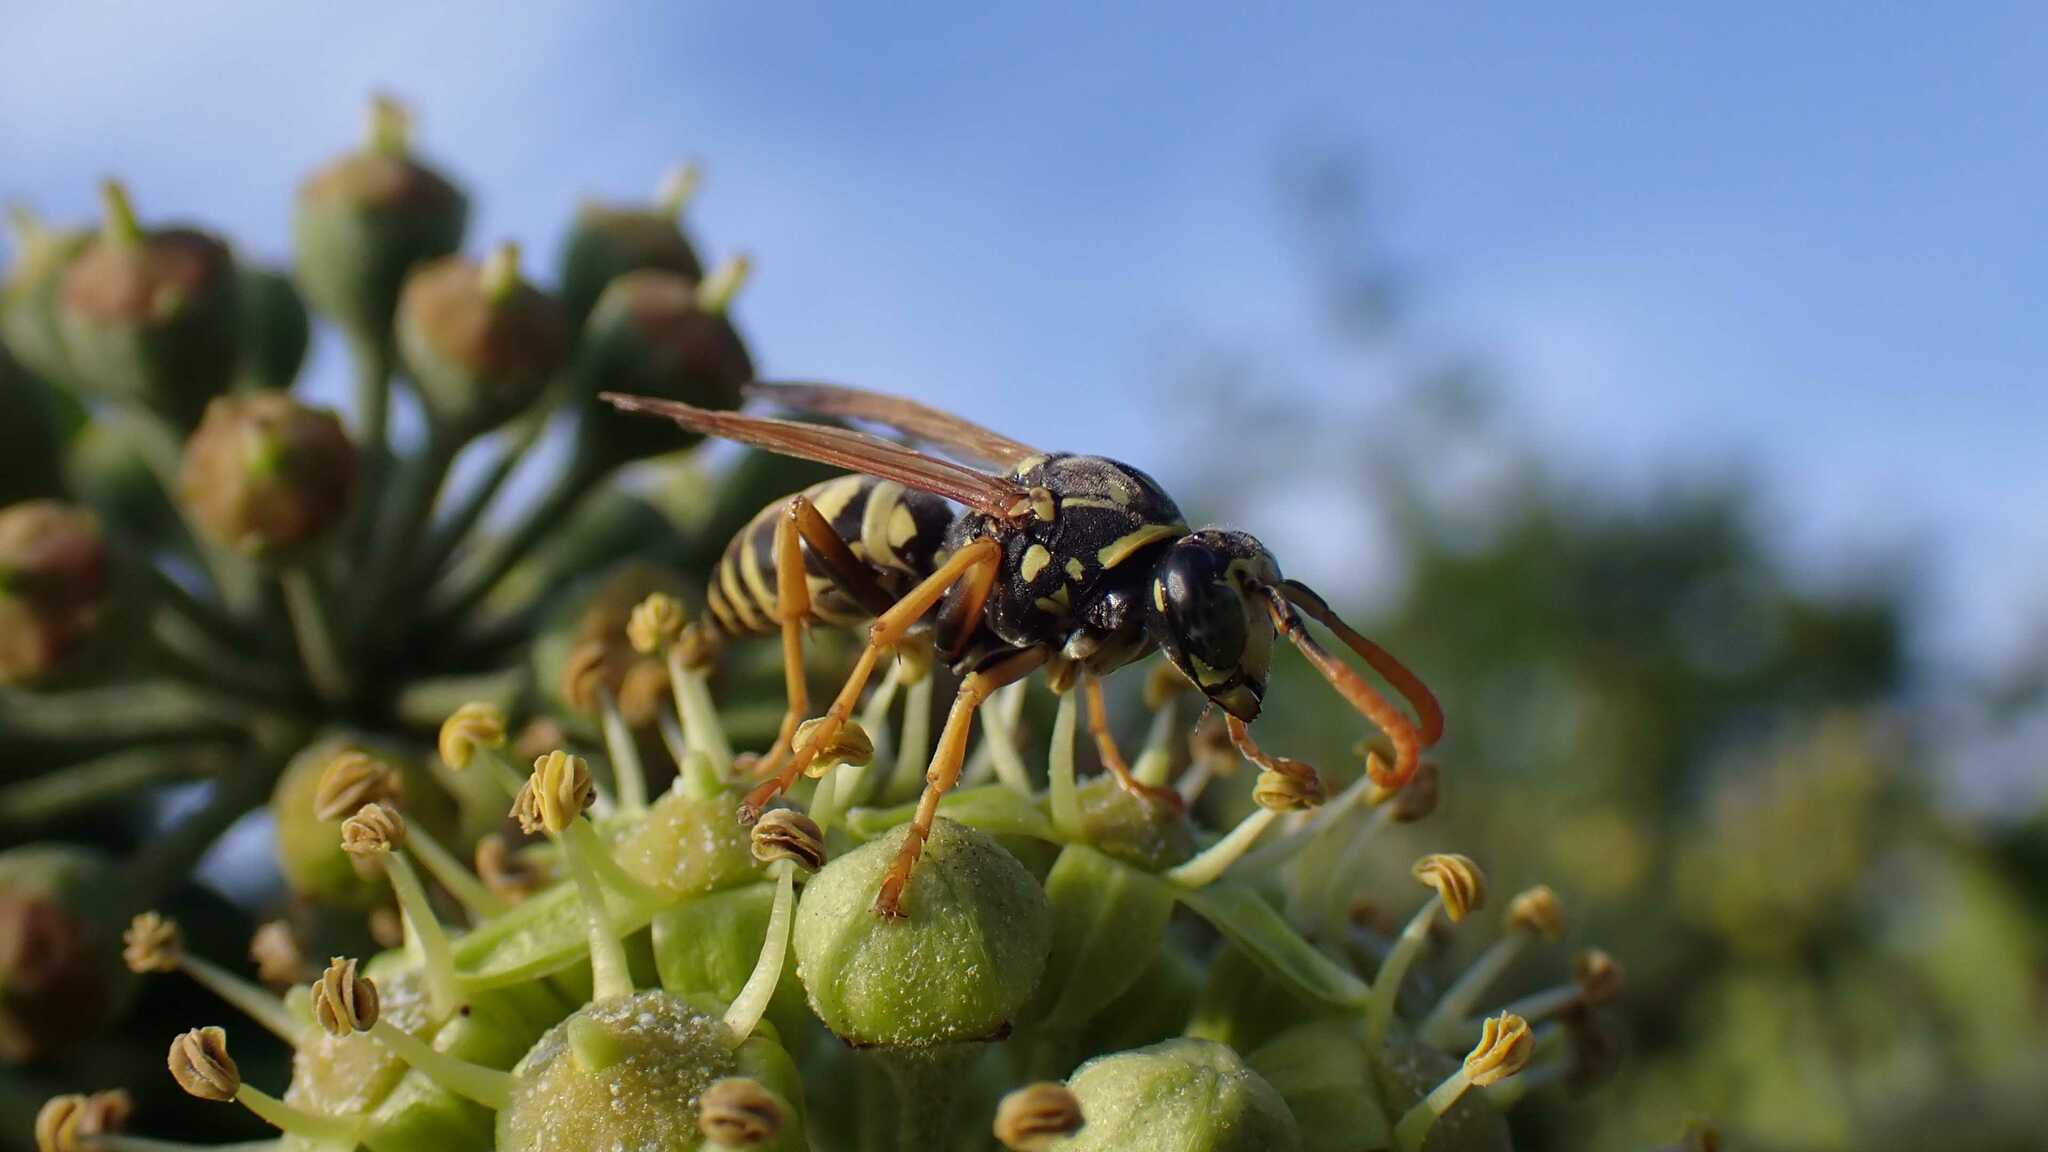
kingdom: Animalia
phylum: Arthropoda
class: Insecta
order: Hymenoptera
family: Eumenidae
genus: Polistes
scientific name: Polistes dominula
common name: Paper wasp
